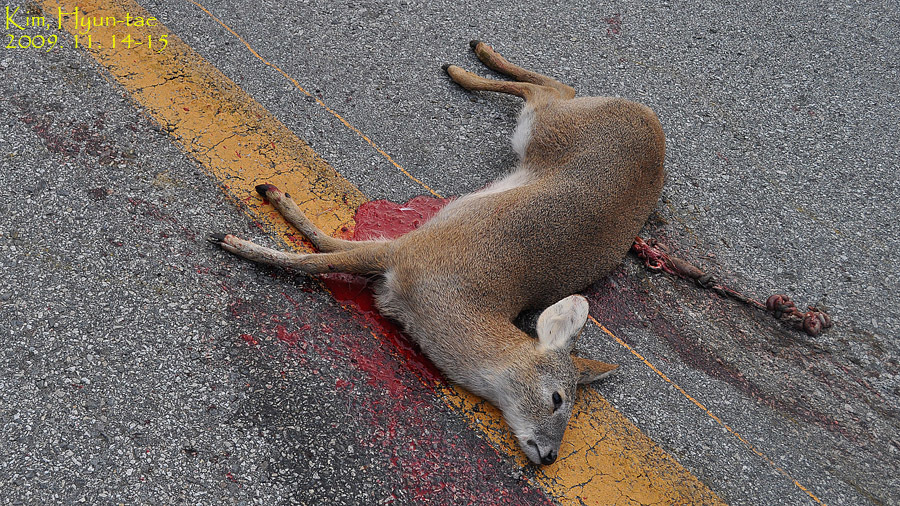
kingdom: Animalia
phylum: Chordata
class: Mammalia
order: Artiodactyla
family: Cervidae
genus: Hydropotes
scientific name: Hydropotes inermis
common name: Chinese water deer
